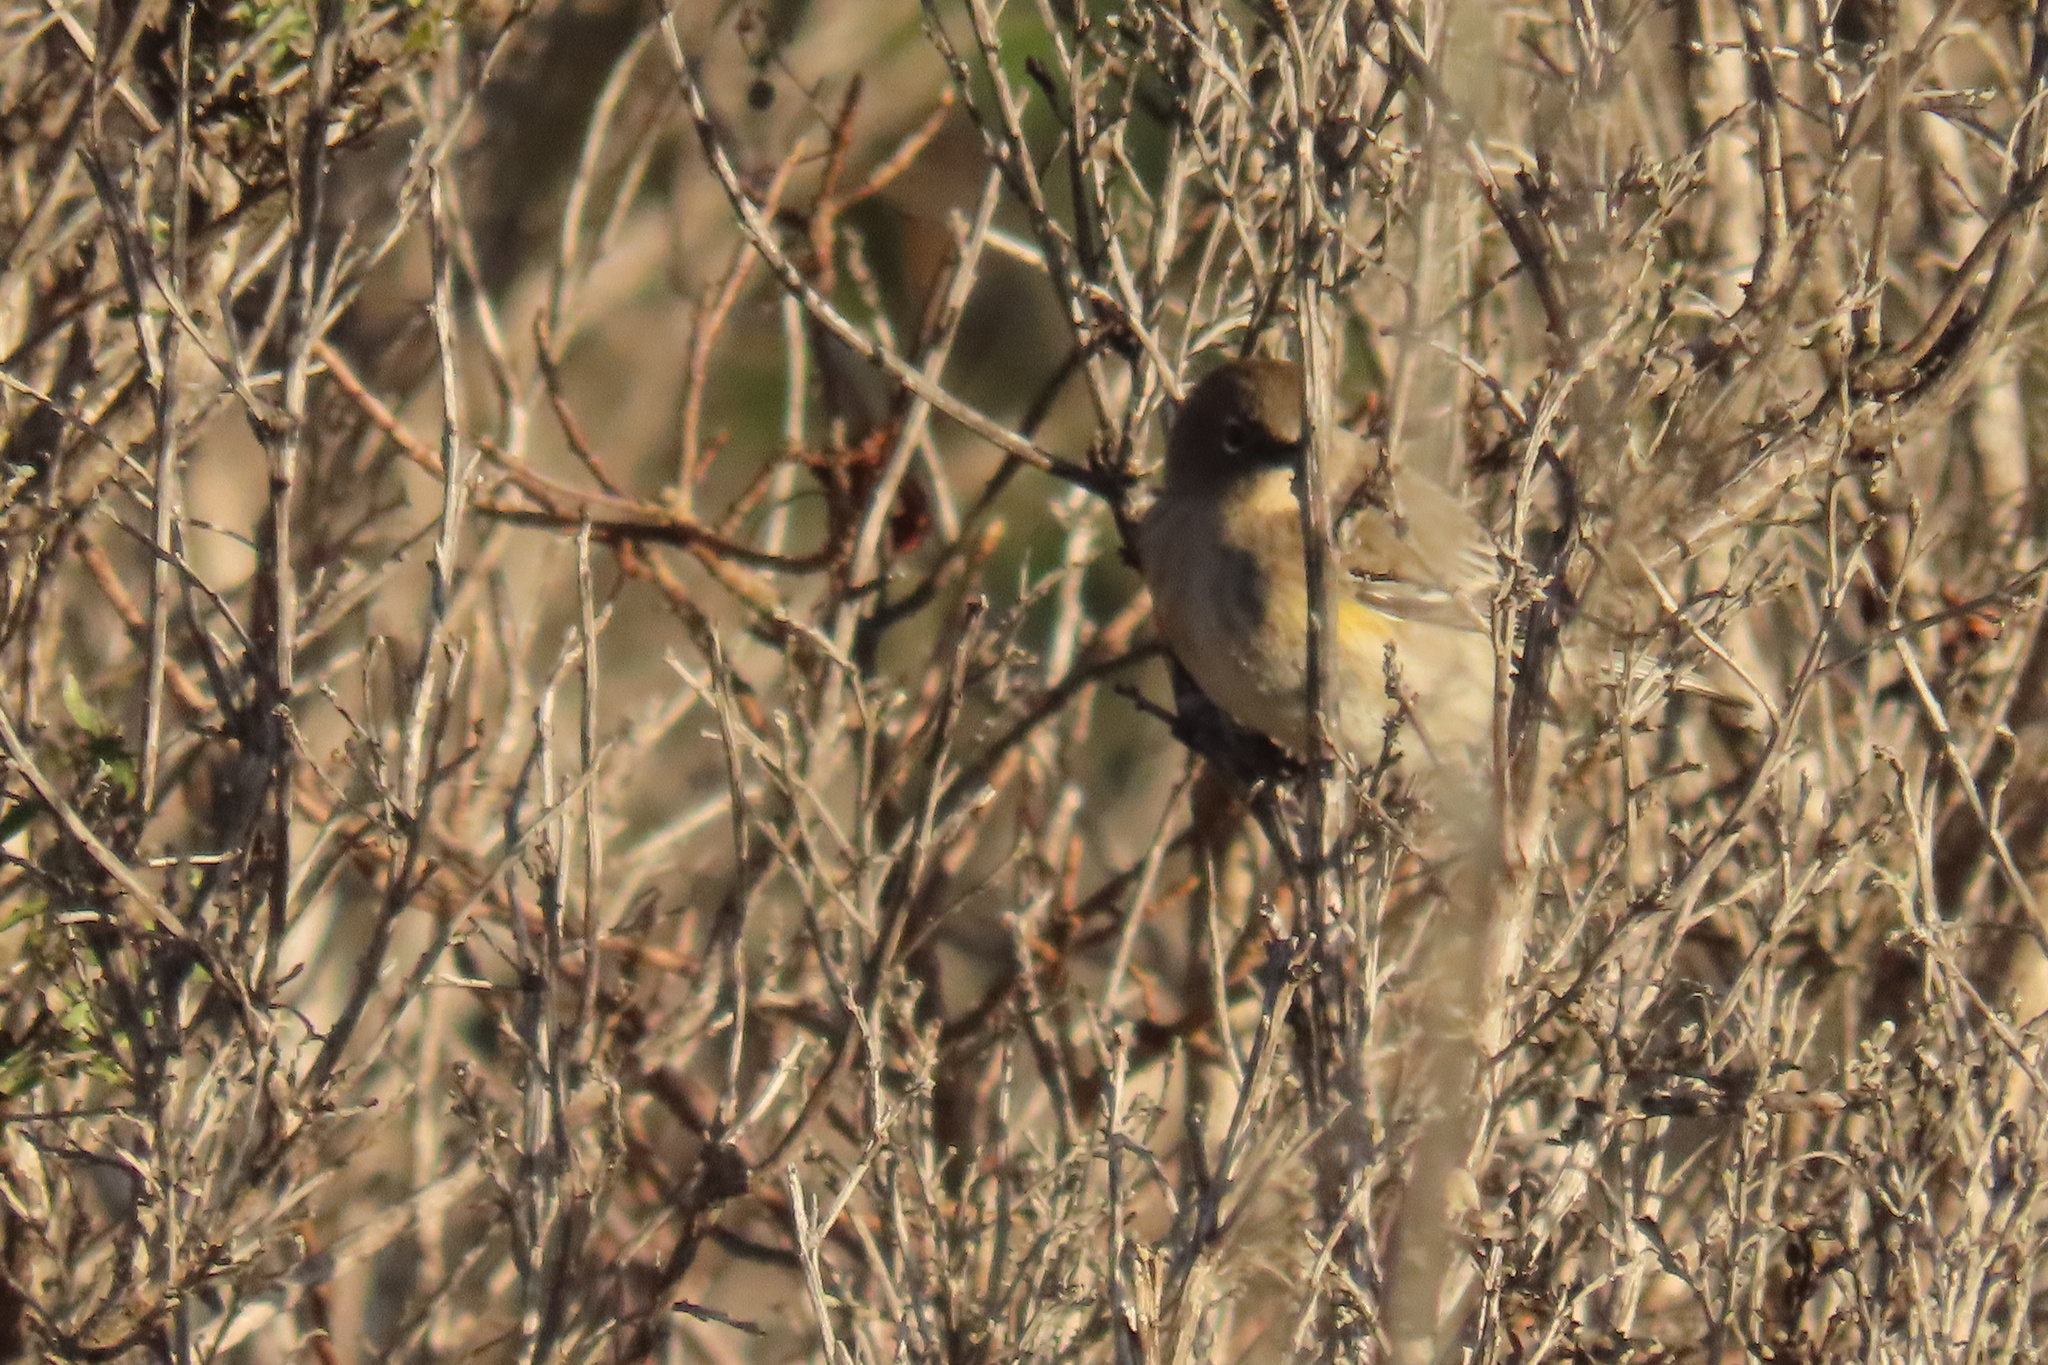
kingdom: Animalia
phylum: Chordata
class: Aves
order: Passeriformes
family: Parulidae
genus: Setophaga
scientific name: Setophaga coronata
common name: Myrtle warbler
